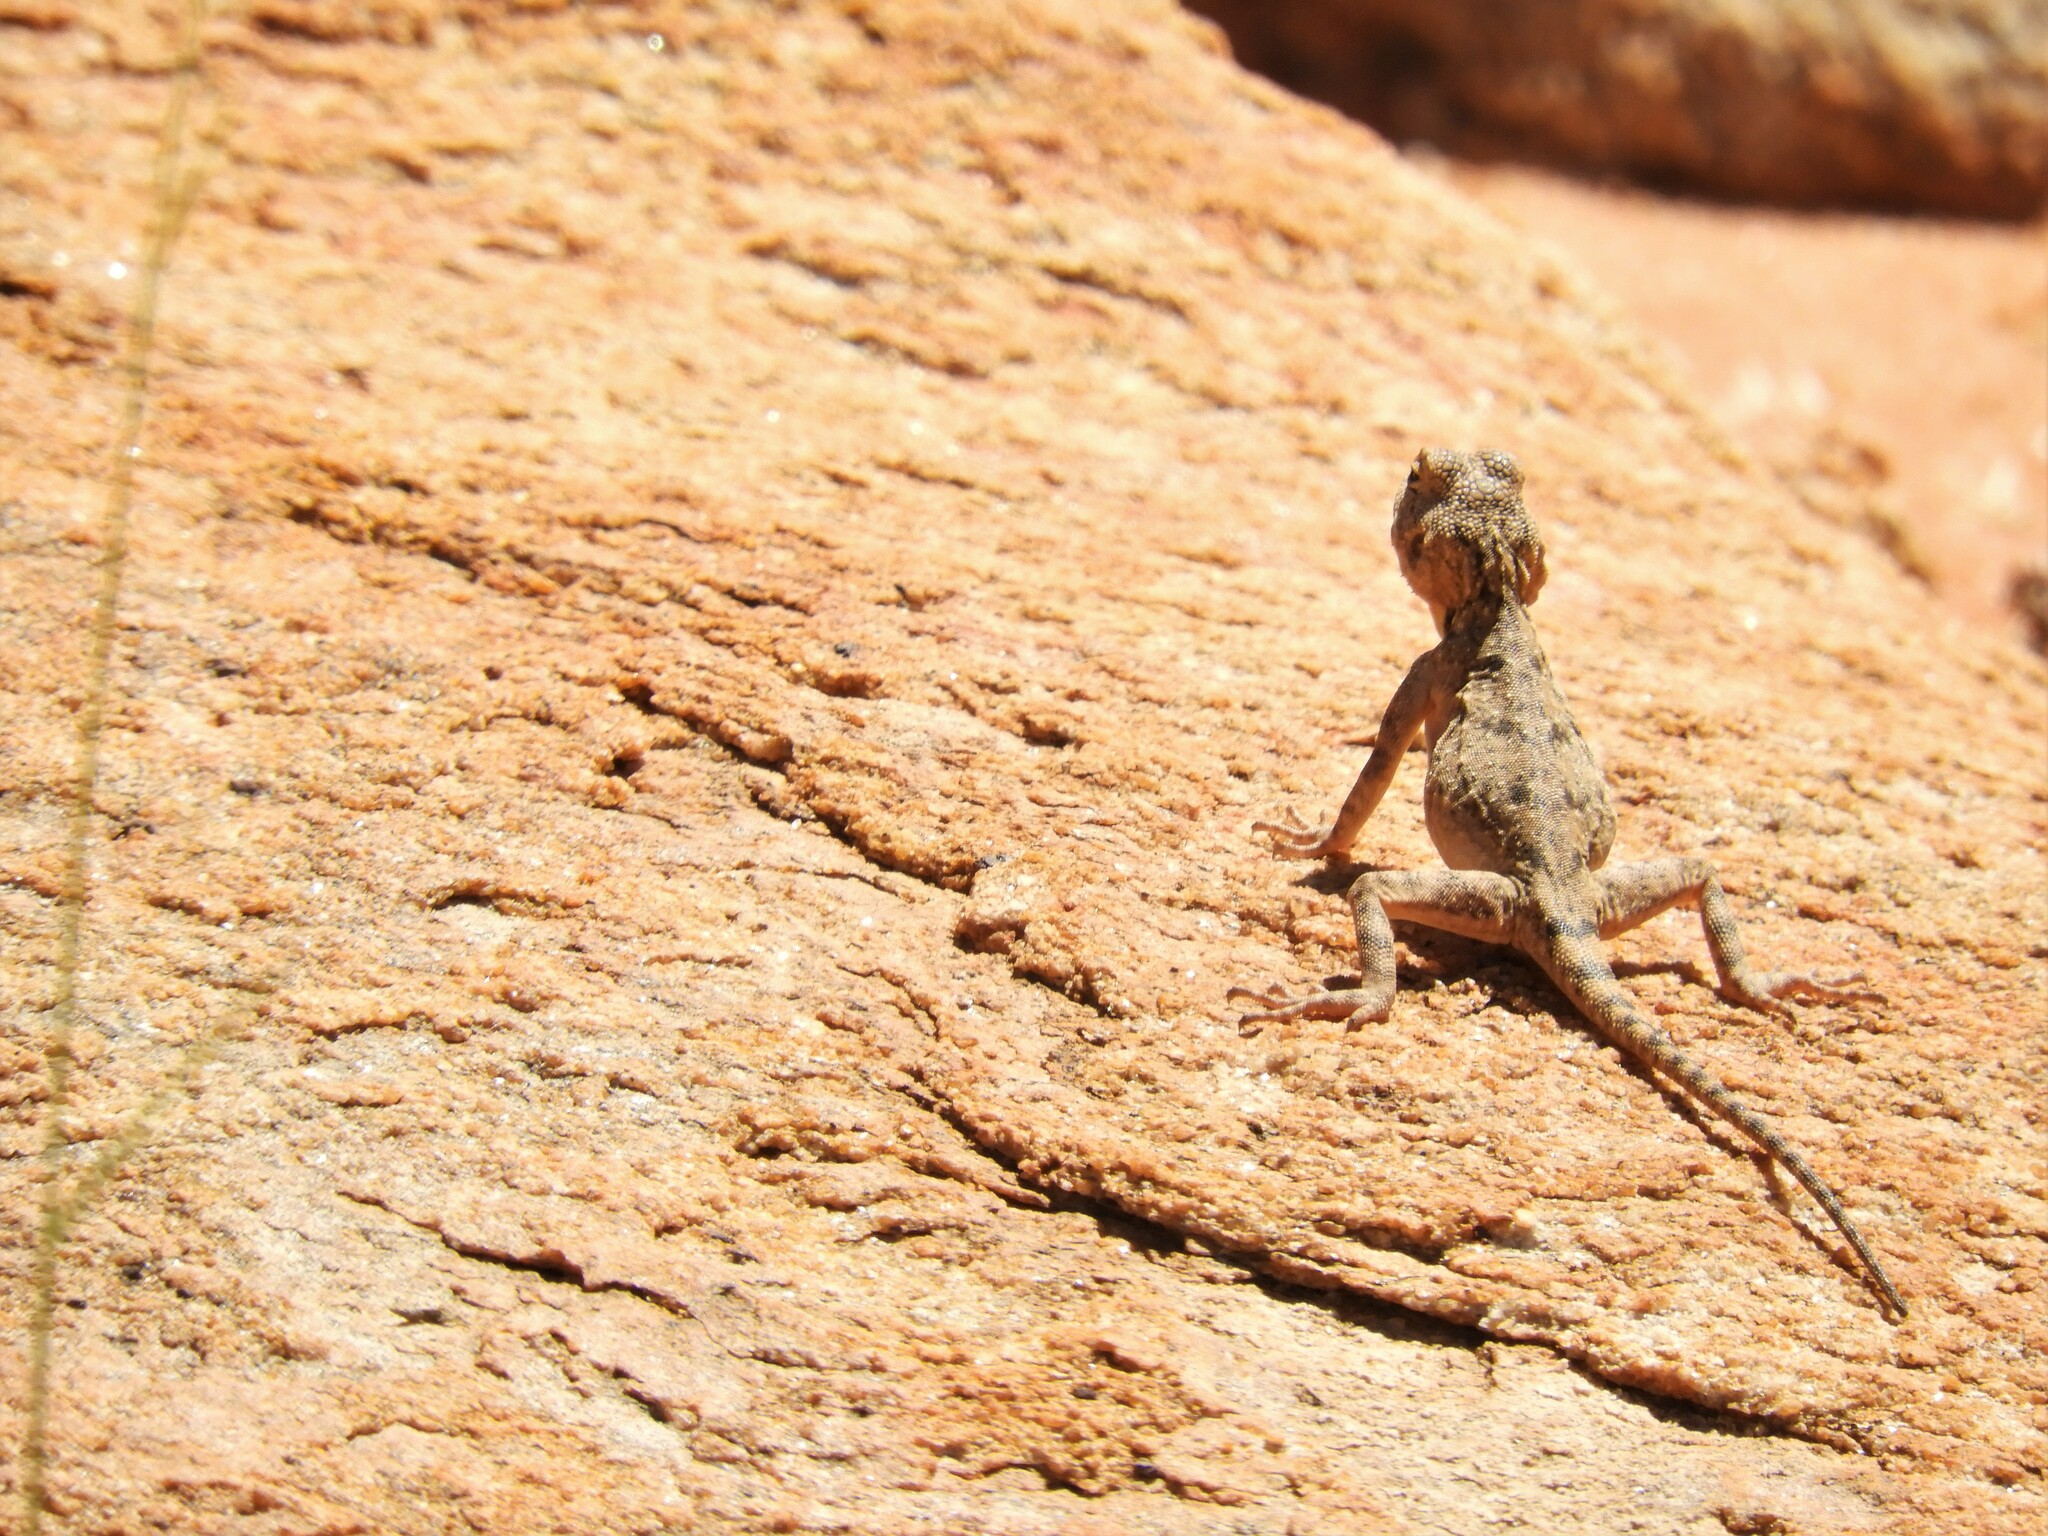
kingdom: Animalia
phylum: Chordata
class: Squamata
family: Agamidae
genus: Agama
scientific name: Agama atra
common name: Southern african rock agama
